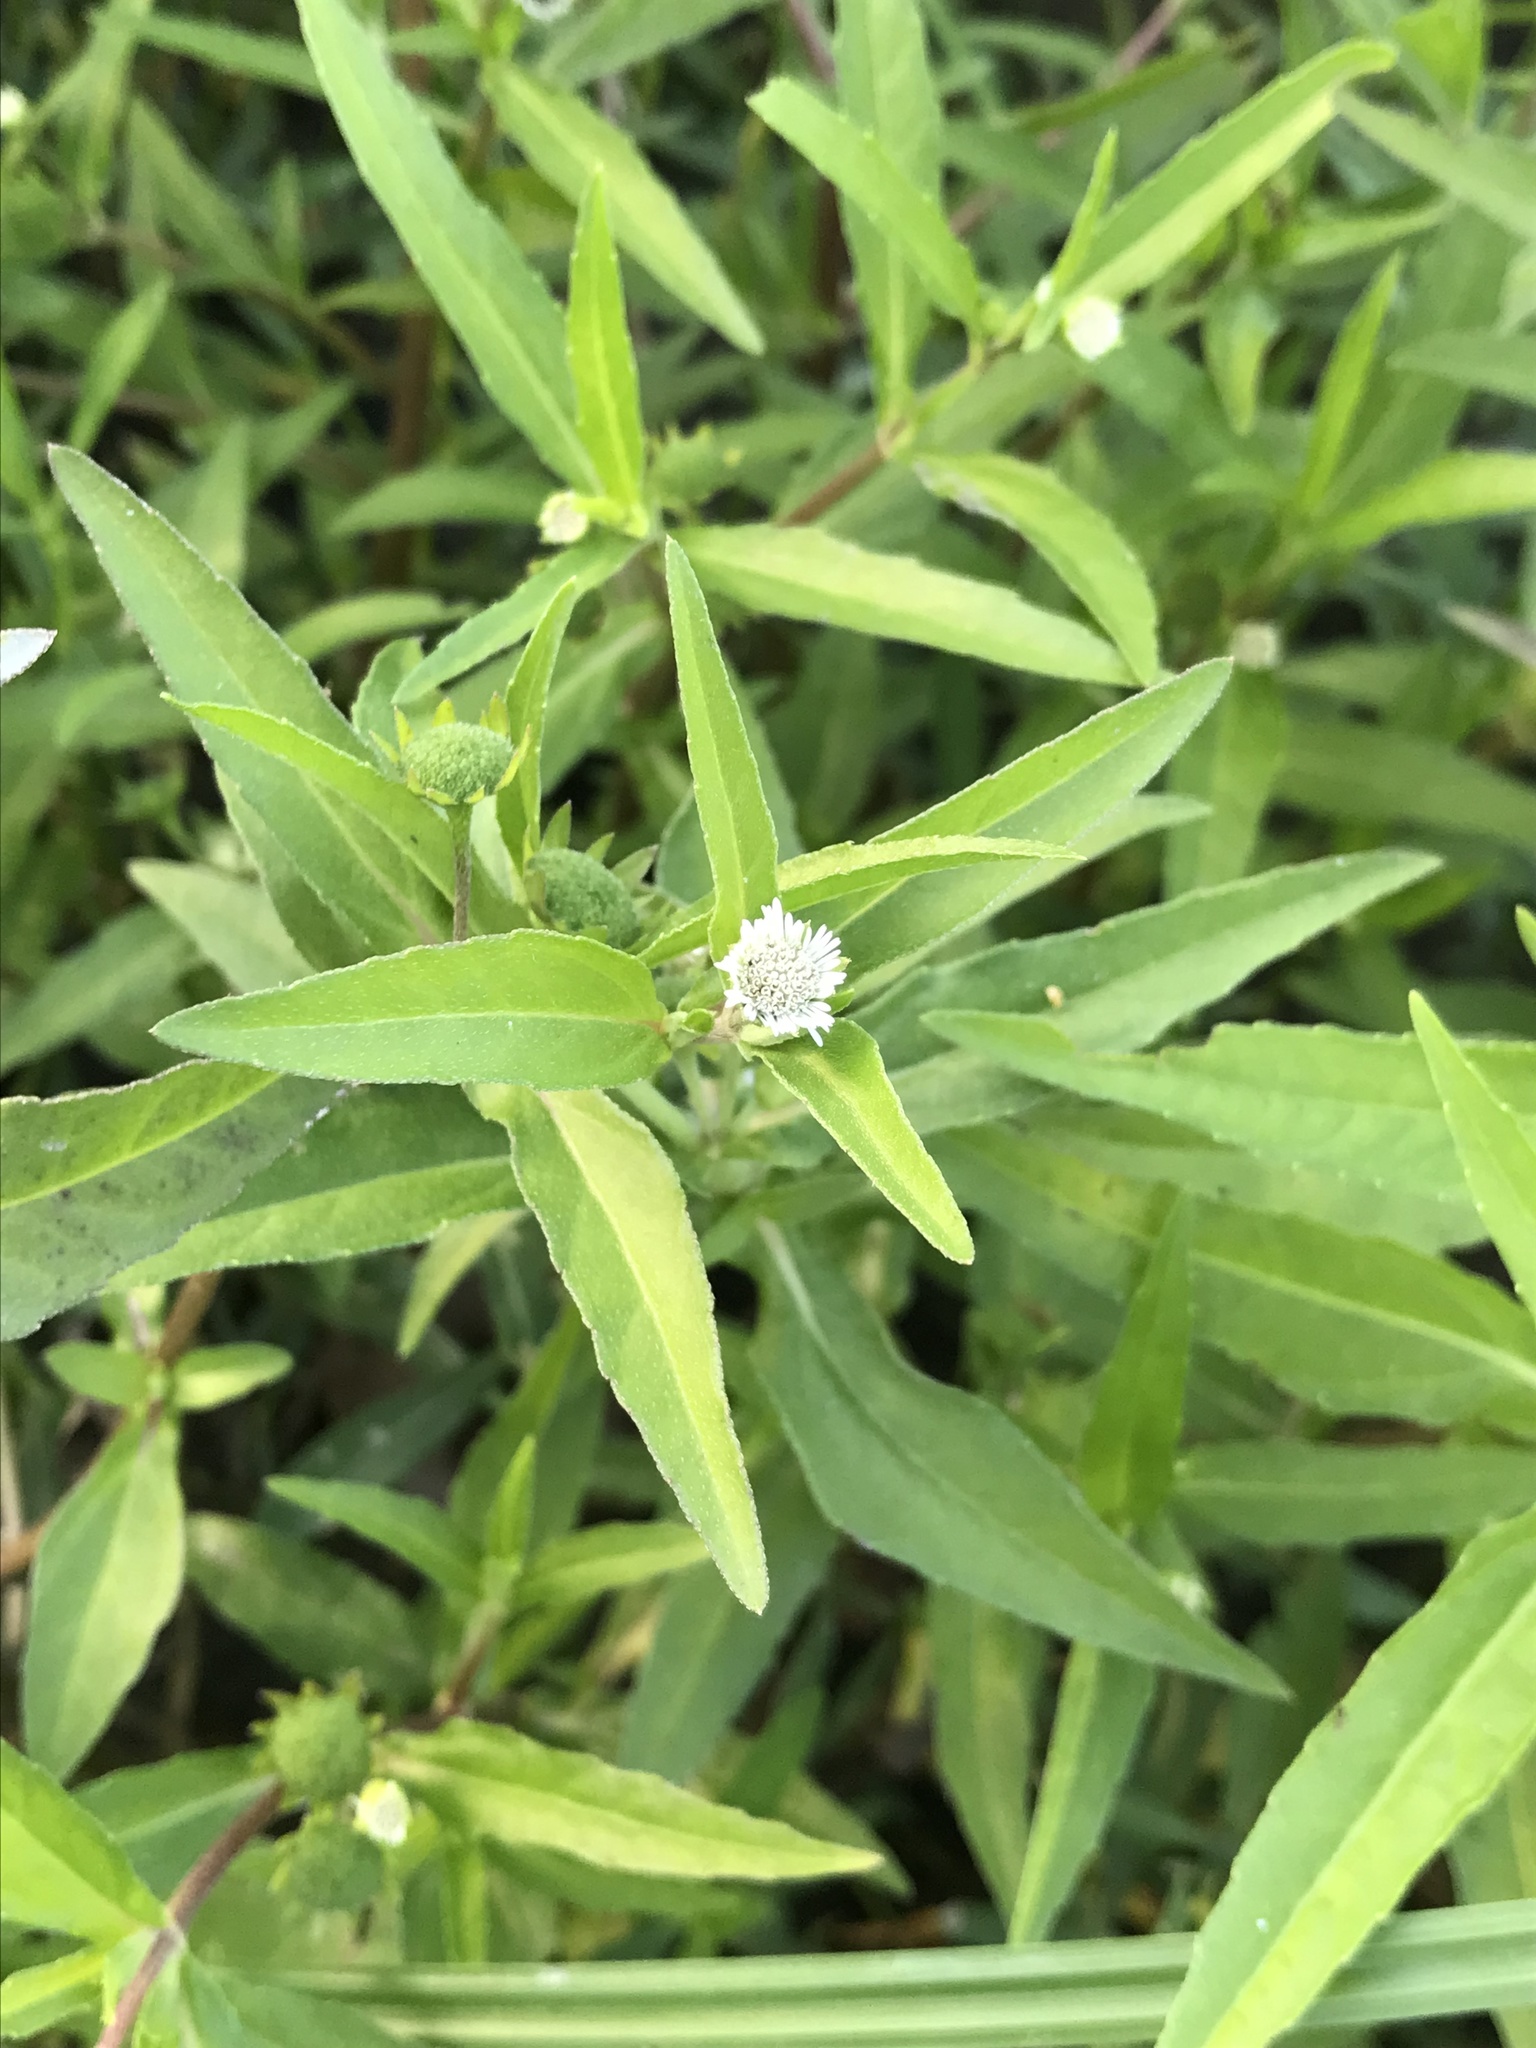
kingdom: Plantae
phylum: Tracheophyta
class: Magnoliopsida
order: Asterales
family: Asteraceae
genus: Eclipta
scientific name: Eclipta prostrata
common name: False daisy
